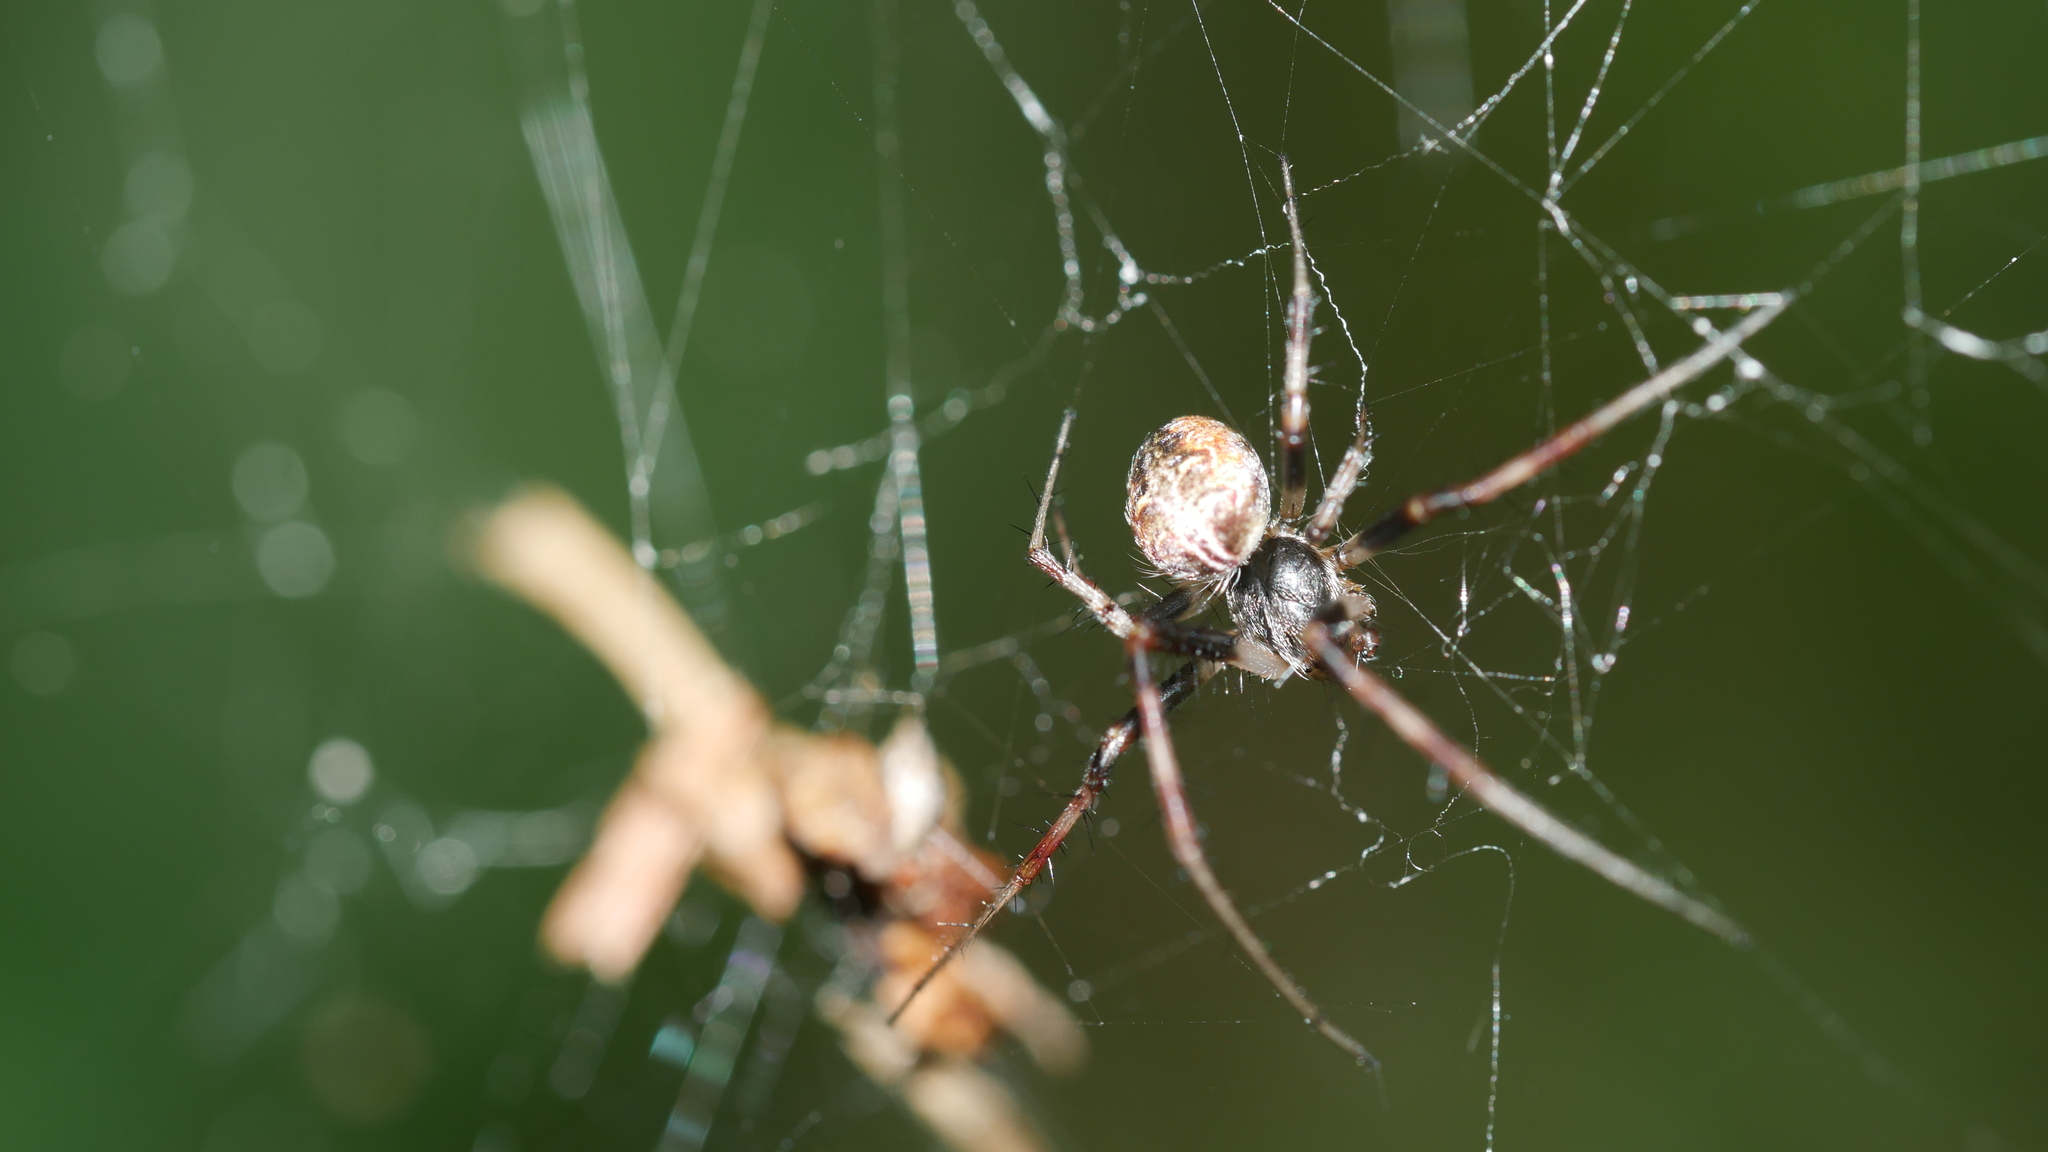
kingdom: Animalia
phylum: Arthropoda
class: Arachnida
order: Araneae
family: Araneidae
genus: Metepeira
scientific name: Metepeira labyrinthea
